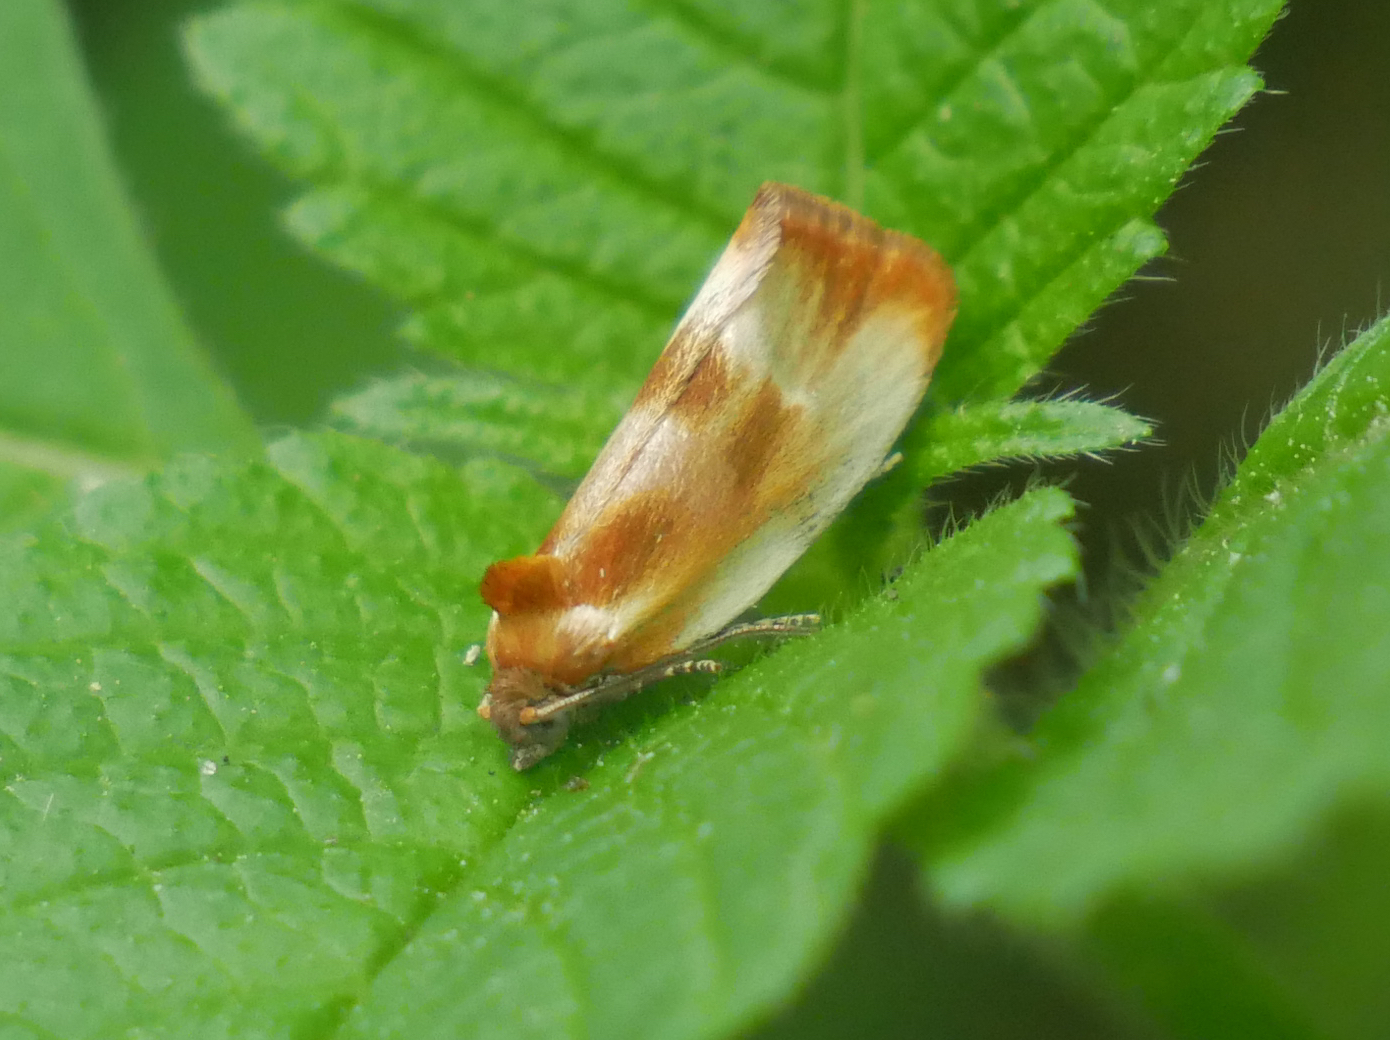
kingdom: Animalia
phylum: Arthropoda
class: Insecta
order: Lepidoptera
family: Tortricidae
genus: Eulia
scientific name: Eulia ministrana
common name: Brassy twist
